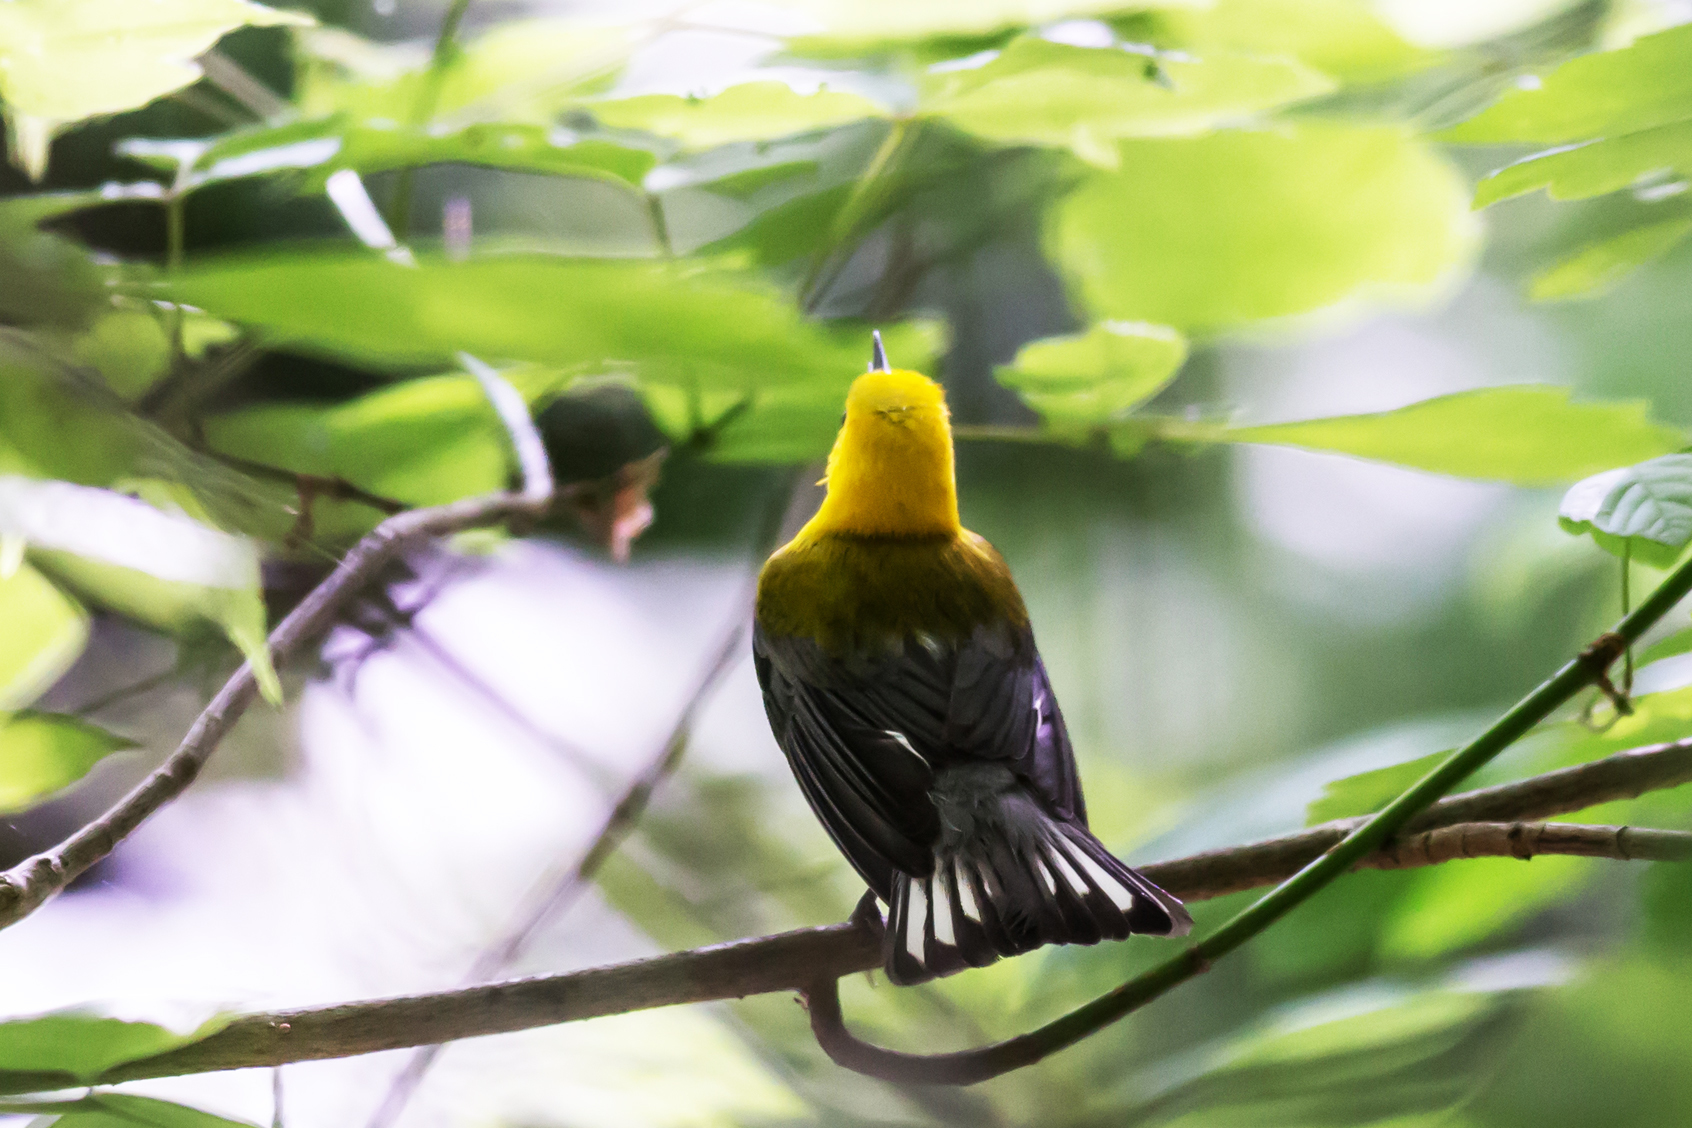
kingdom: Animalia
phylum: Chordata
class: Aves
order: Passeriformes
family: Parulidae
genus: Protonotaria
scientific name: Protonotaria citrea
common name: Prothonotary warbler
